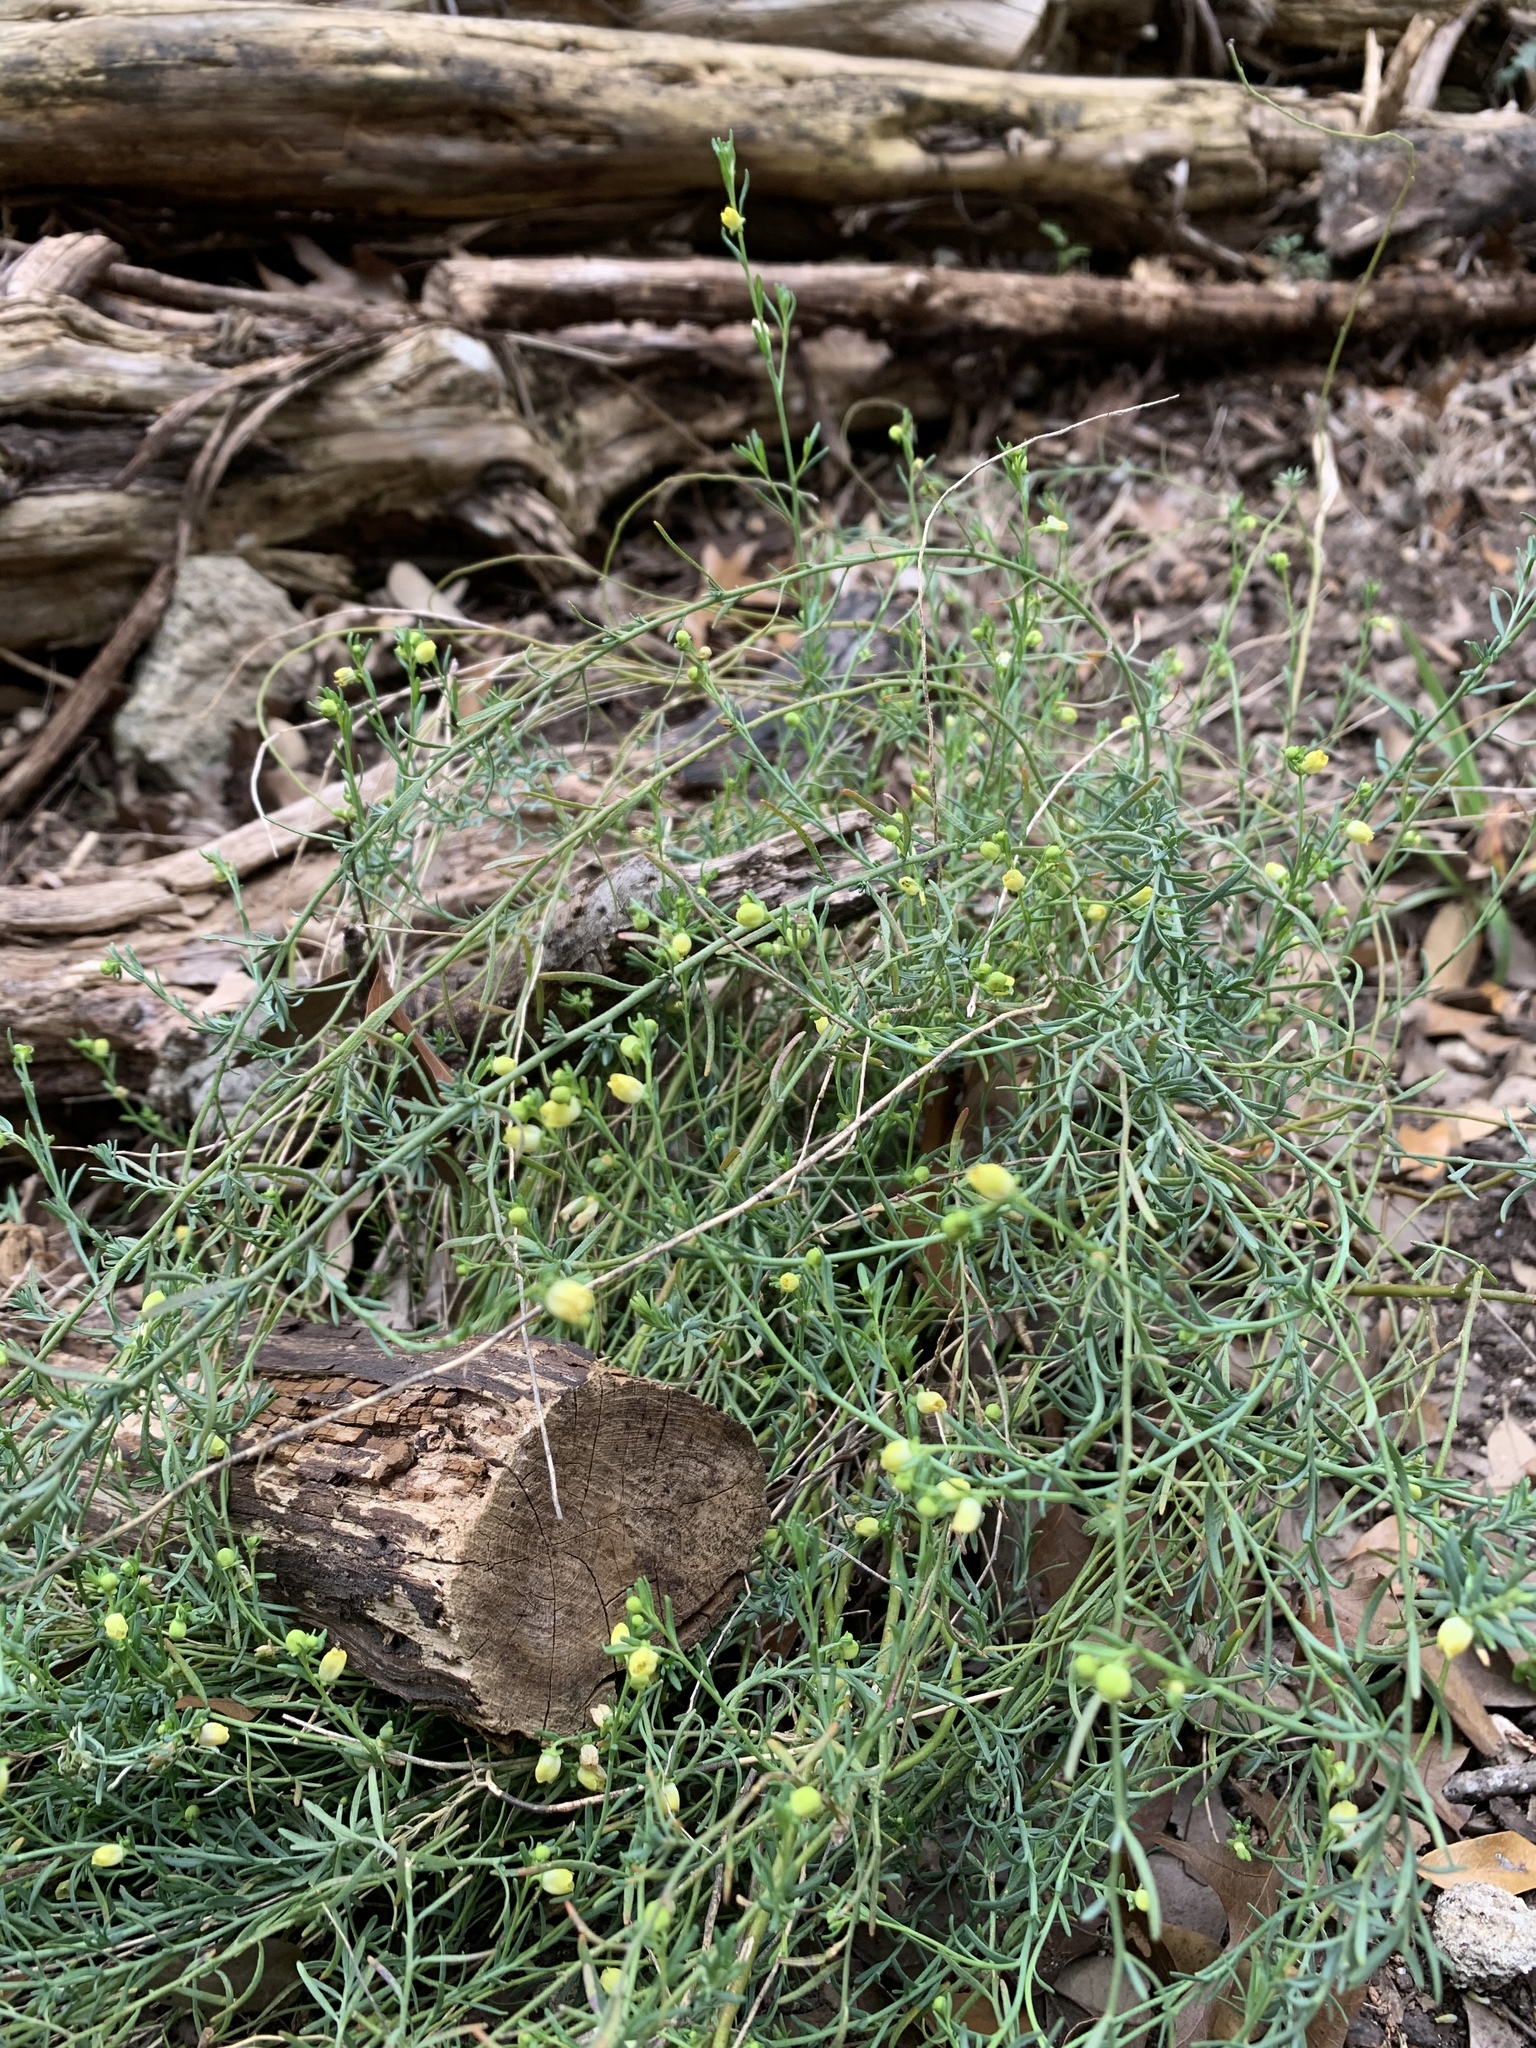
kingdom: Plantae
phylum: Tracheophyta
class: Magnoliopsida
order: Sapindales
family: Rutaceae
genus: Thamnosma
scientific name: Thamnosma texana
